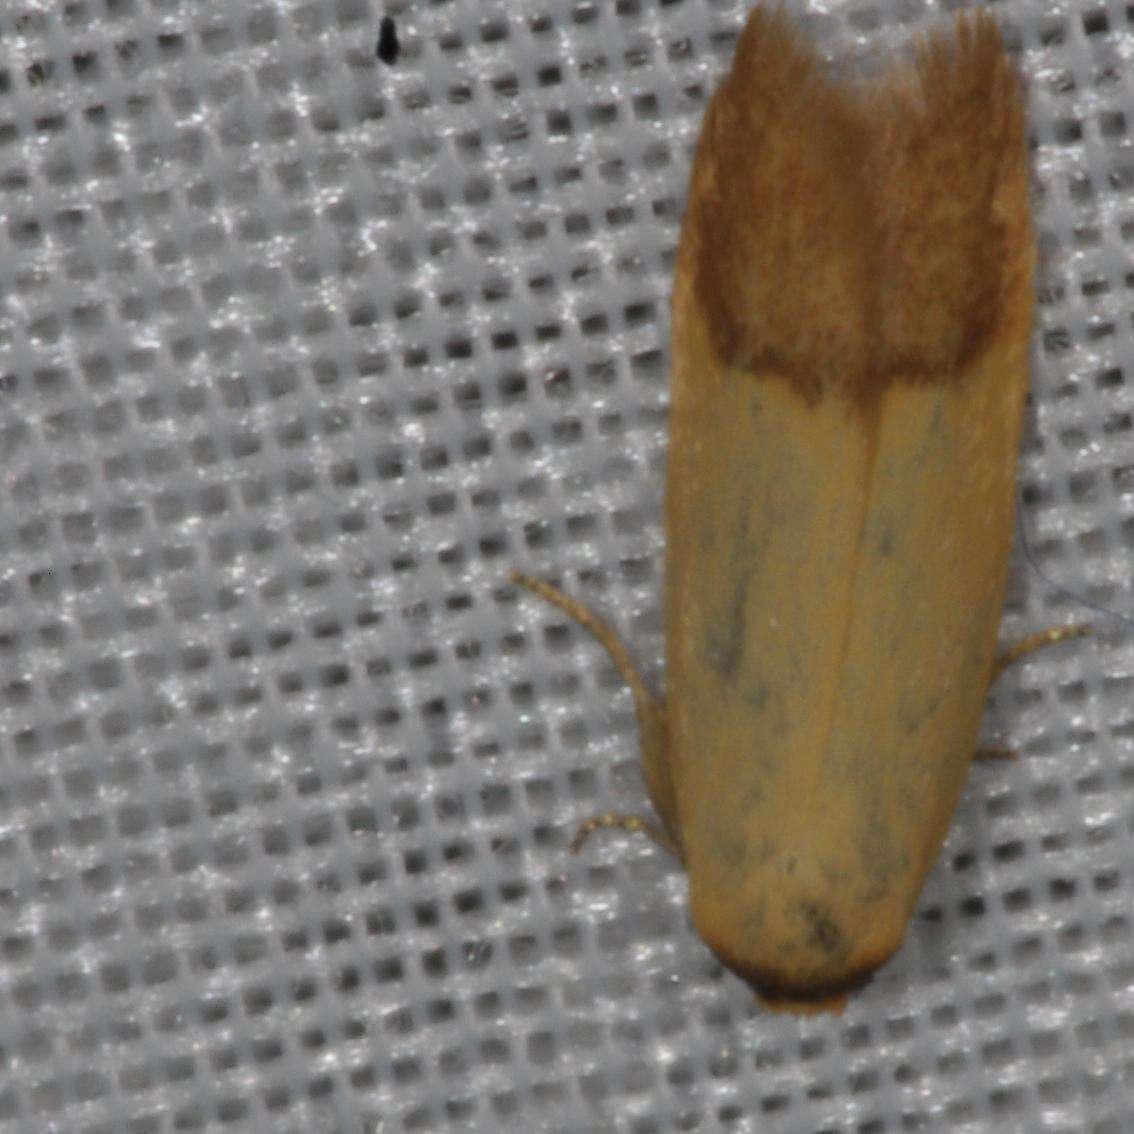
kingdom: Animalia
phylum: Arthropoda
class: Insecta
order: Lepidoptera
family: Oecophoridae
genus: Tachystola
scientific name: Tachystola stenoptera
